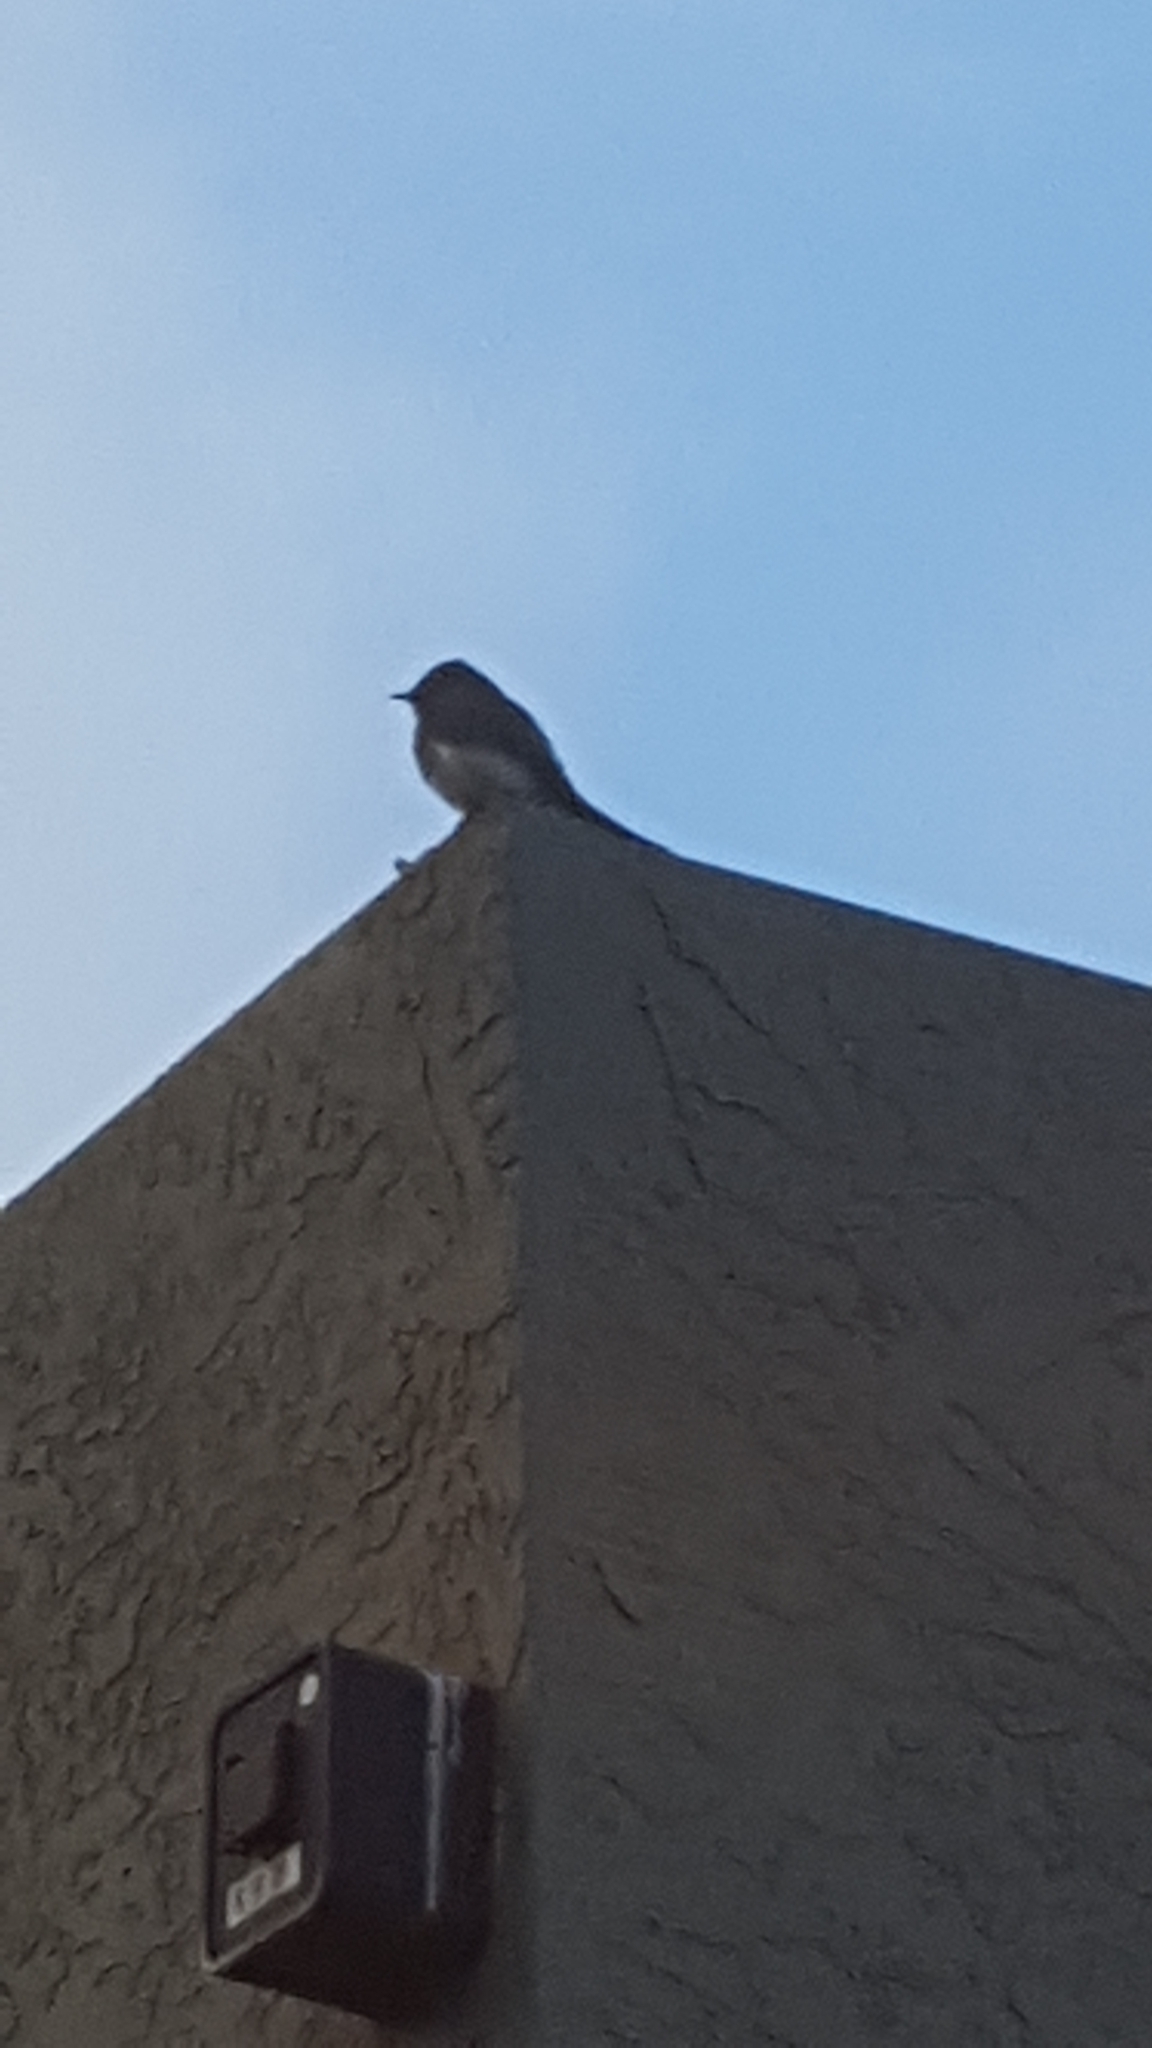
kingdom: Animalia
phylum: Chordata
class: Aves
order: Passeriformes
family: Tyrannidae
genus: Sayornis
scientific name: Sayornis nigricans
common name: Black phoebe
